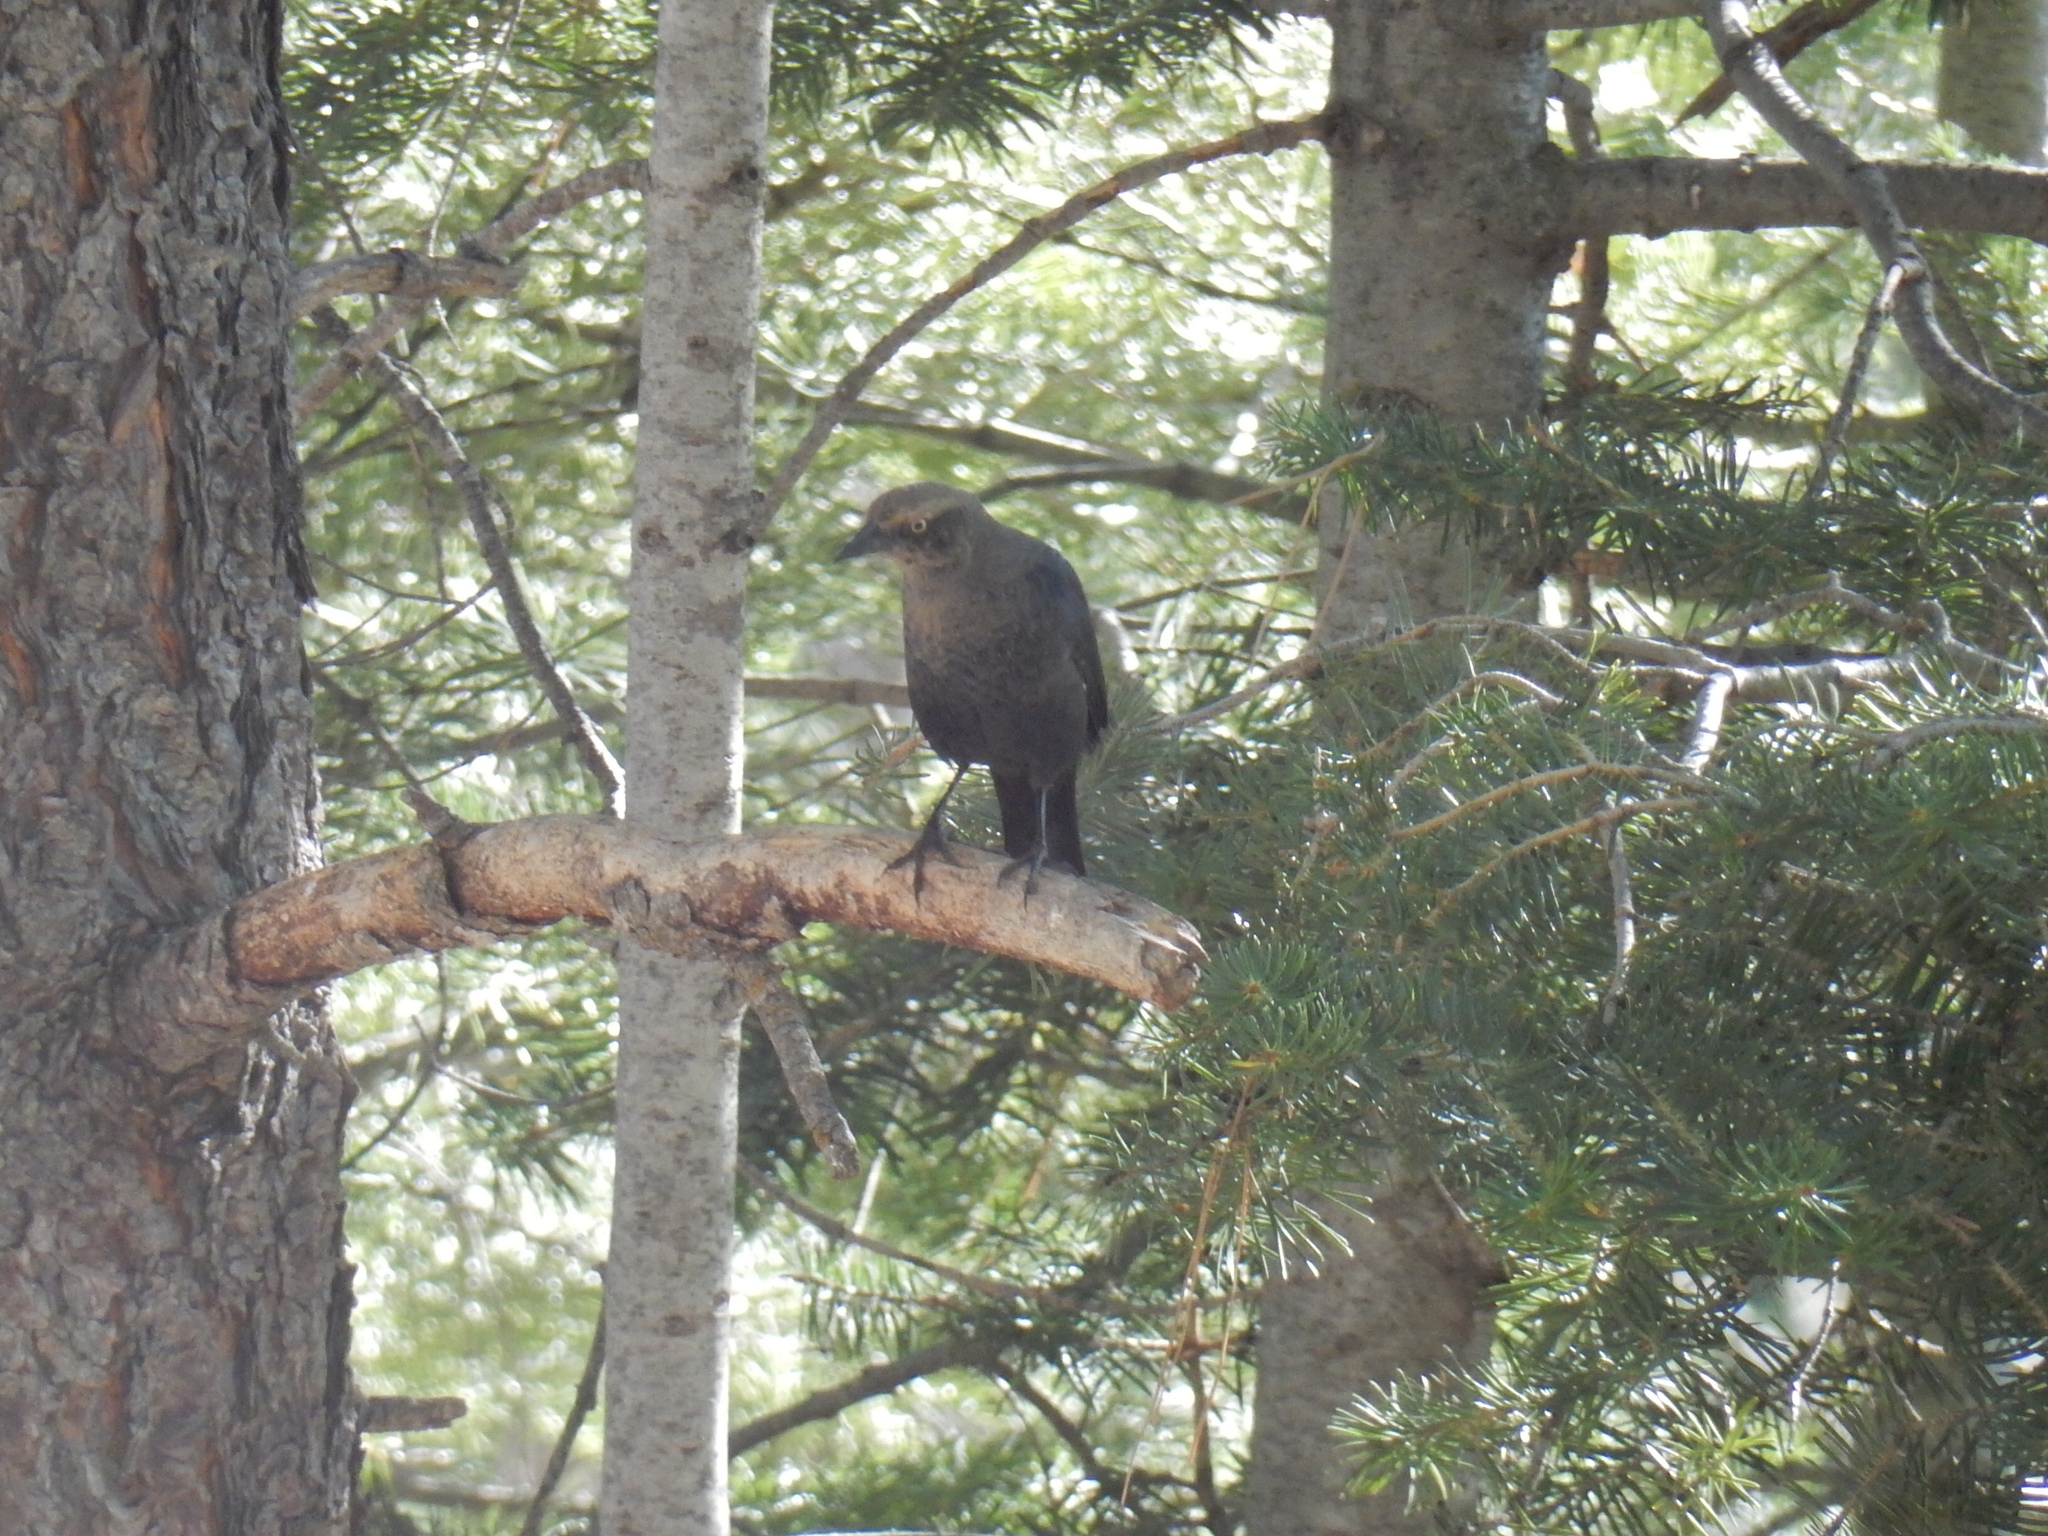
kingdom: Animalia
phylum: Chordata
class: Aves
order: Passeriformes
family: Icteridae
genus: Euphagus
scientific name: Euphagus cyanocephalus
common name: Brewer's blackbird
